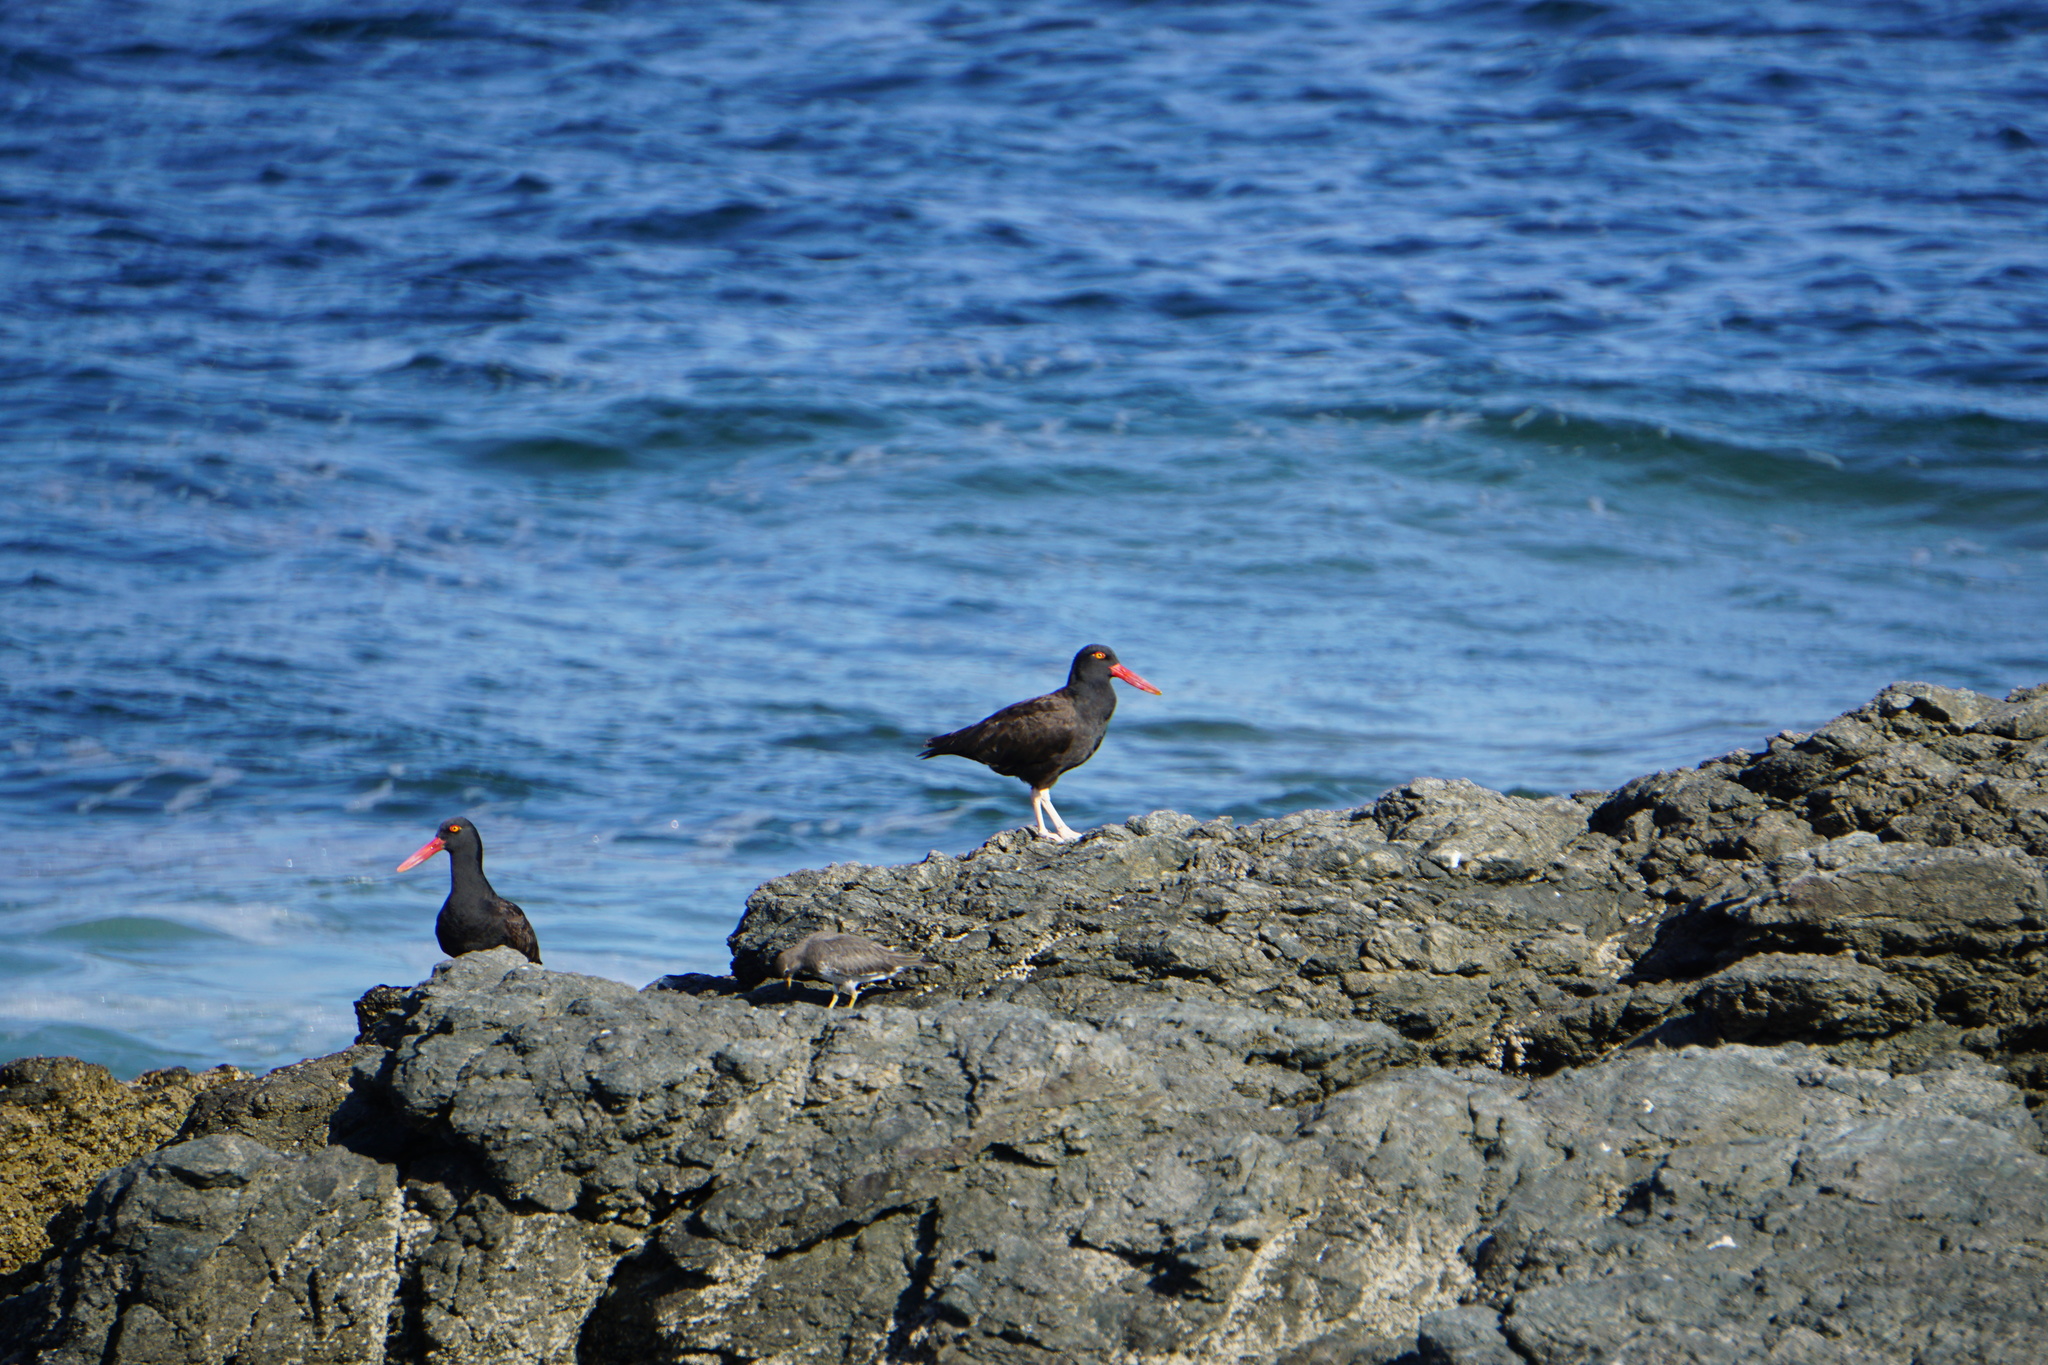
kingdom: Animalia
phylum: Chordata
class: Aves
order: Charadriiformes
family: Haematopodidae
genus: Haematopus
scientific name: Haematopus ater
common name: Blackish oystercatcher
